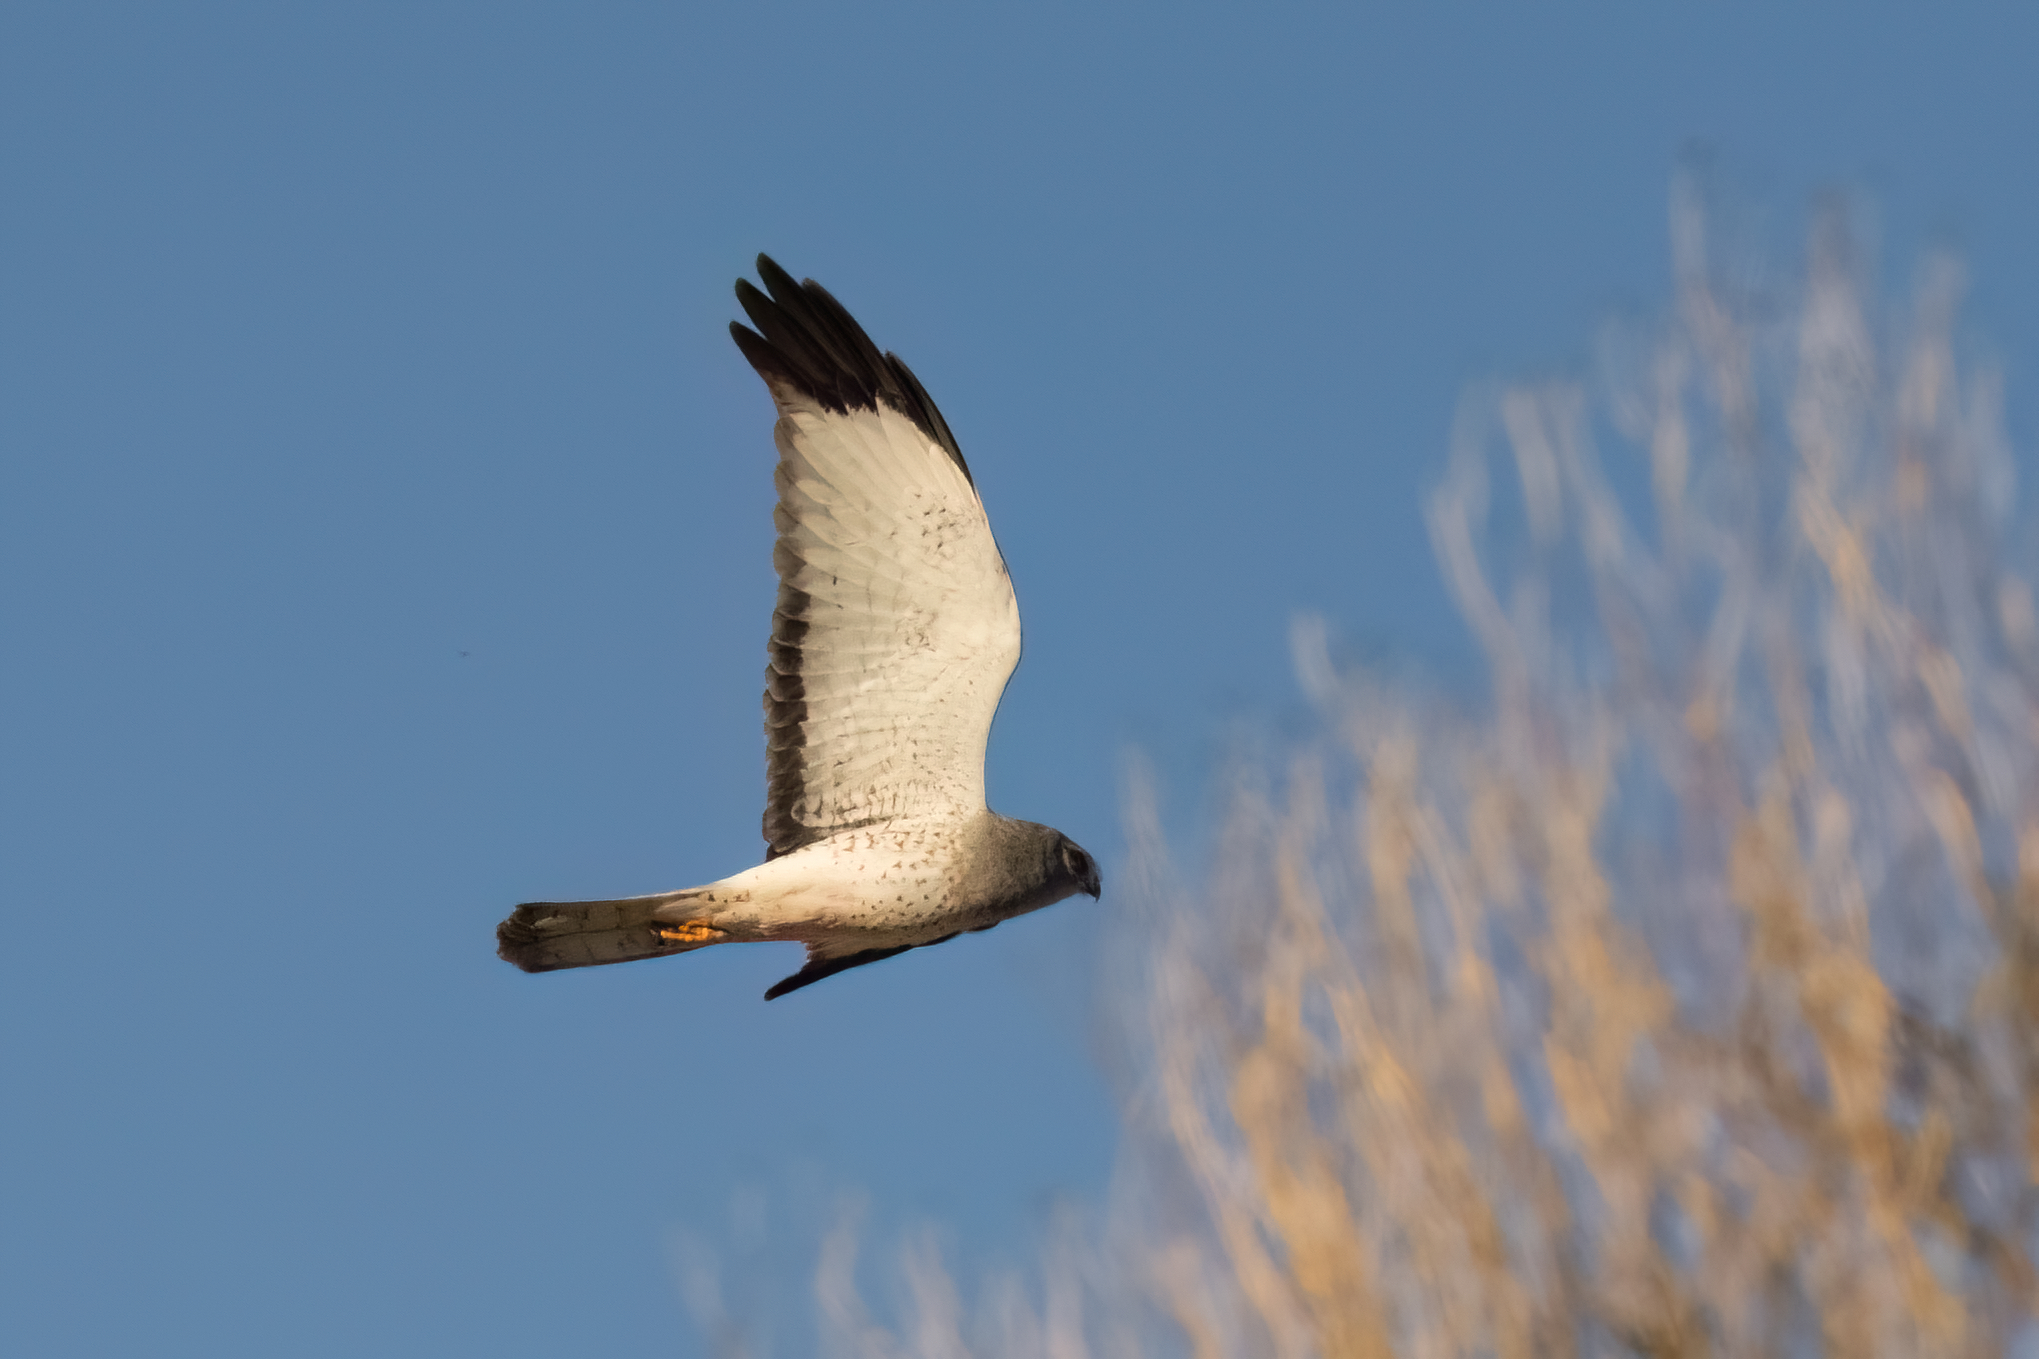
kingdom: Animalia
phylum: Chordata
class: Aves
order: Accipitriformes
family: Accipitridae
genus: Circus
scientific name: Circus cyaneus
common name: Hen harrier
